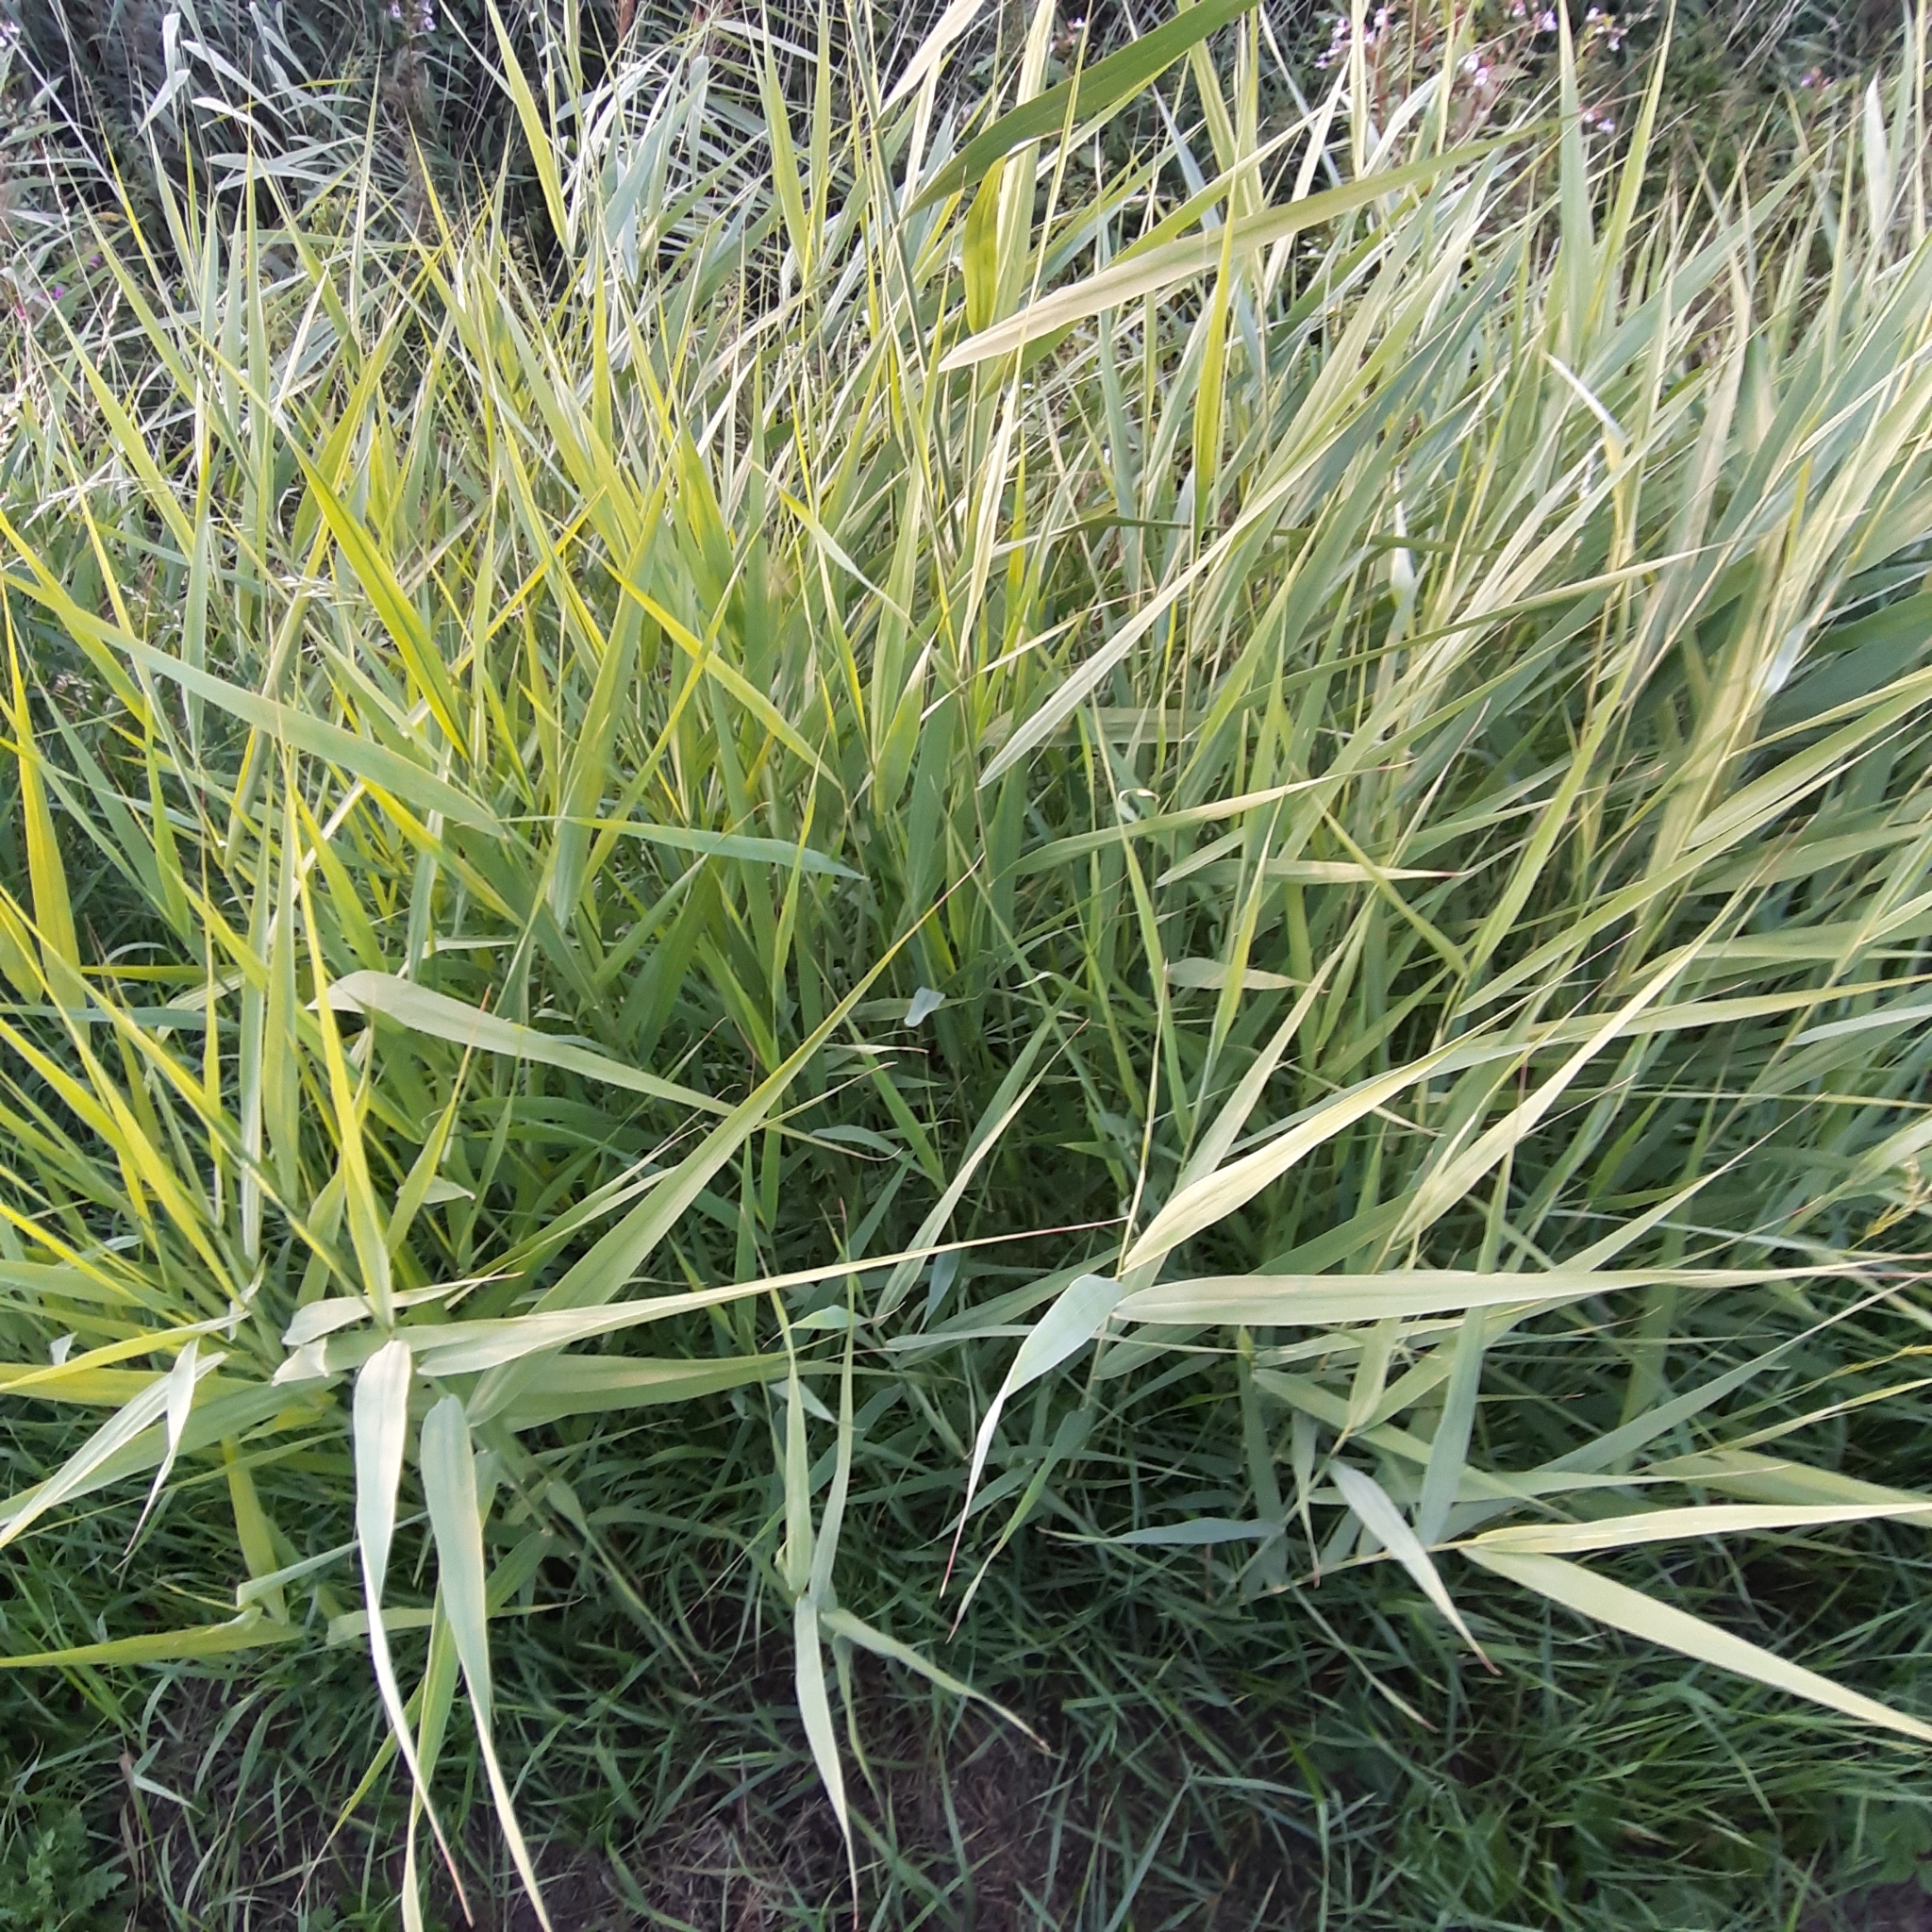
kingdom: Plantae
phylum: Tracheophyta
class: Liliopsida
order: Poales
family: Poaceae
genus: Phragmites
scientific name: Phragmites australis
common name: Common reed
